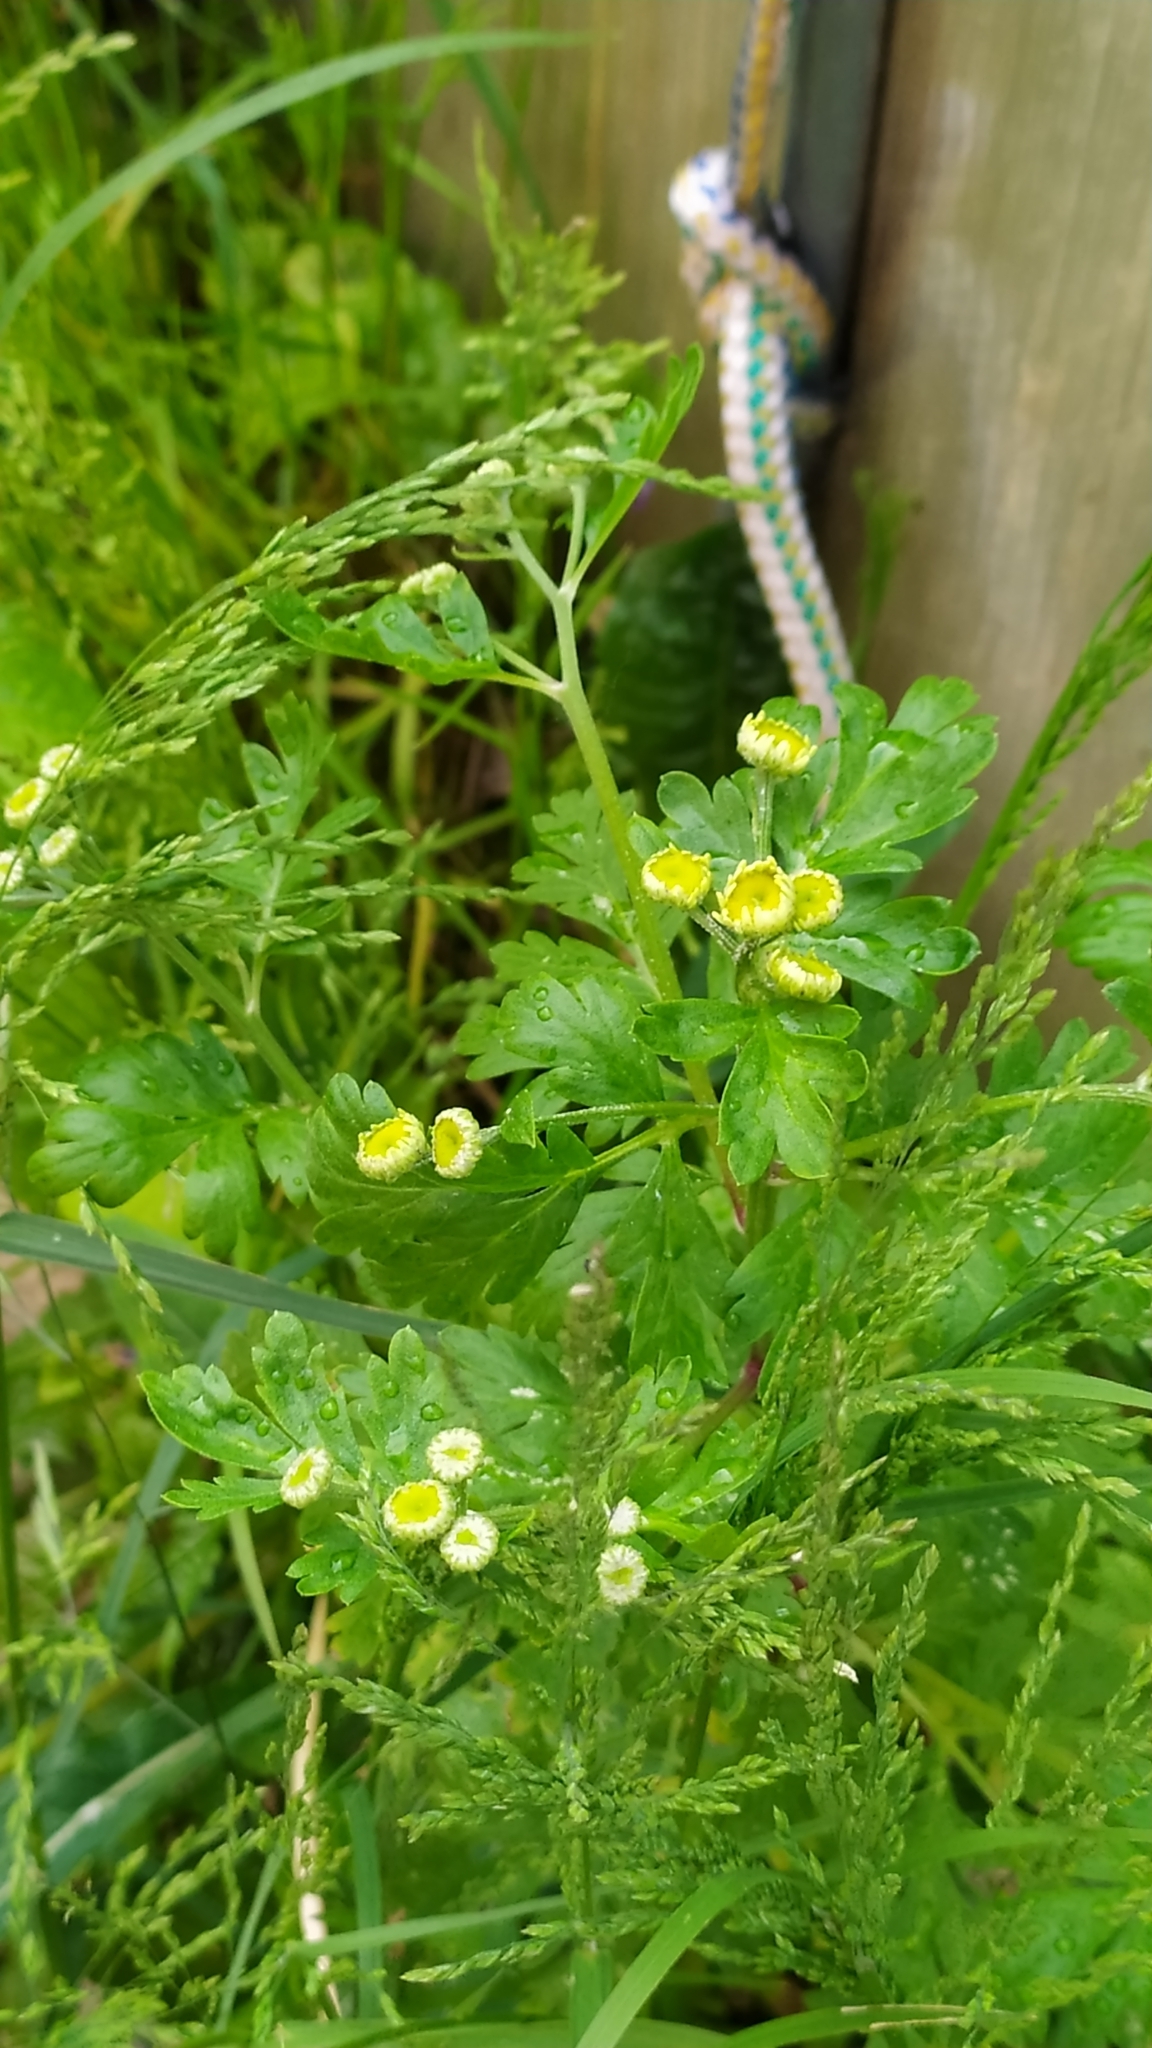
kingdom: Plantae
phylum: Tracheophyta
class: Magnoliopsida
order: Asterales
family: Asteraceae
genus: Tanacetum
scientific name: Tanacetum parthenium
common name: Feverfew
